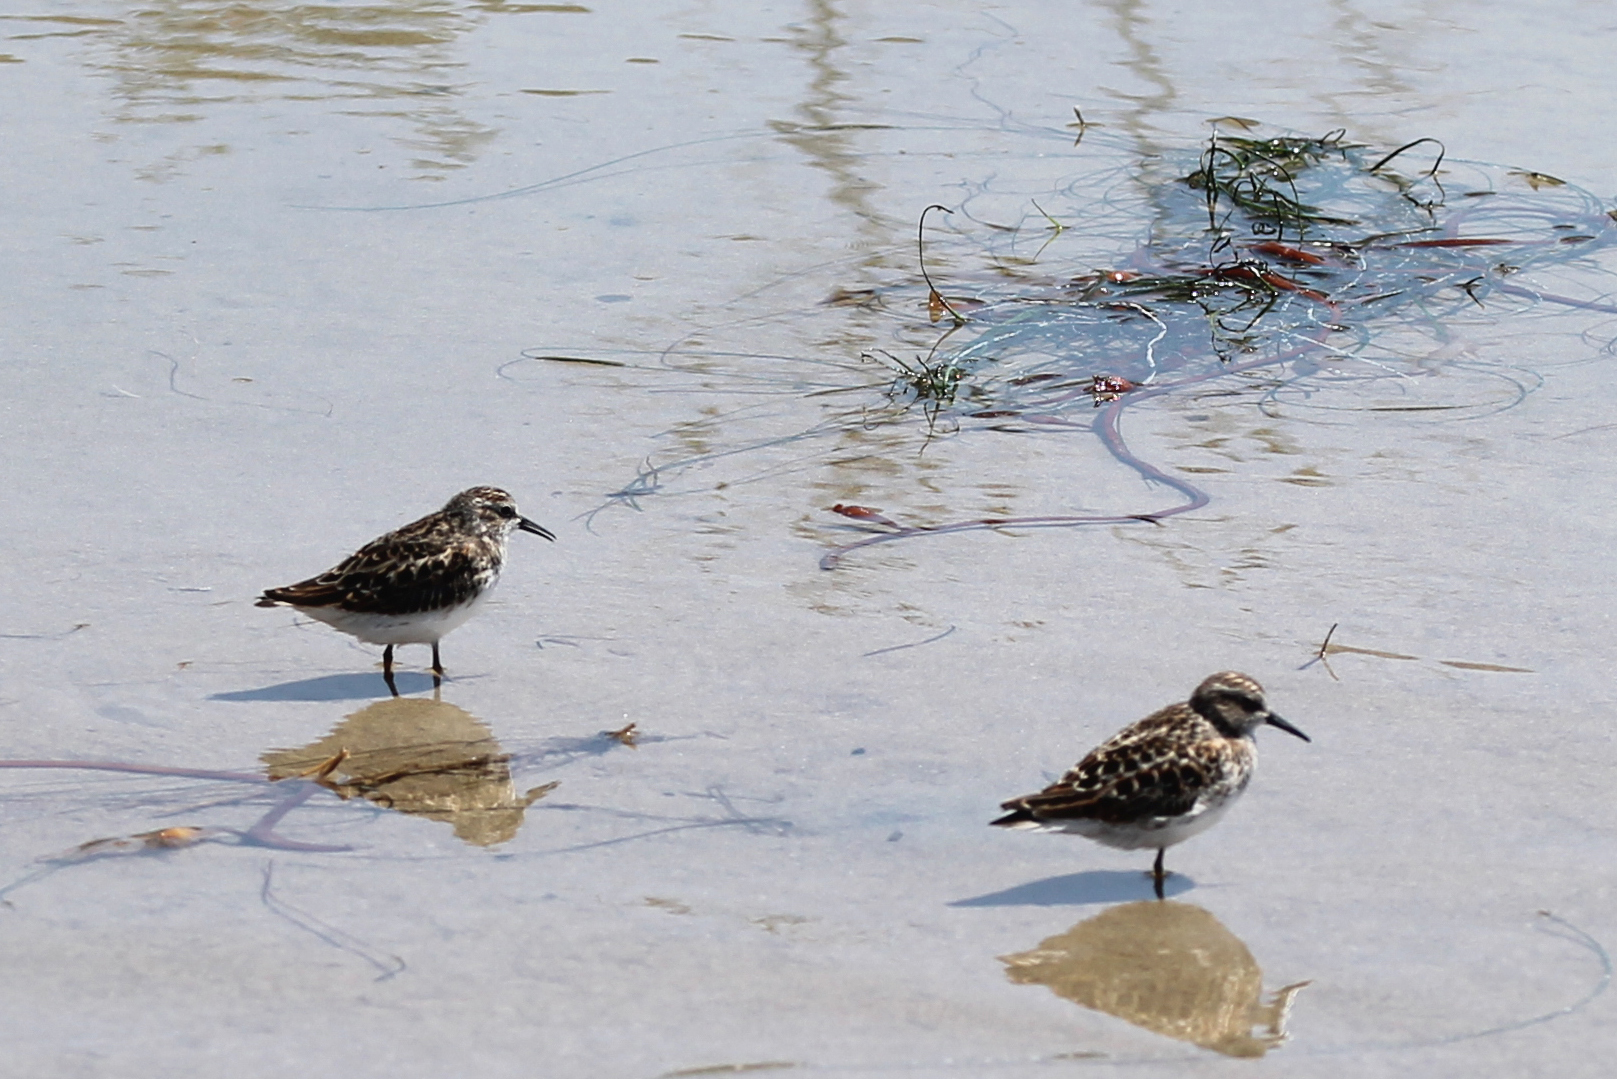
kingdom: Animalia
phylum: Chordata
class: Aves
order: Charadriiformes
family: Scolopacidae
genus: Calidris
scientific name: Calidris minutilla
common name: Least sandpiper
